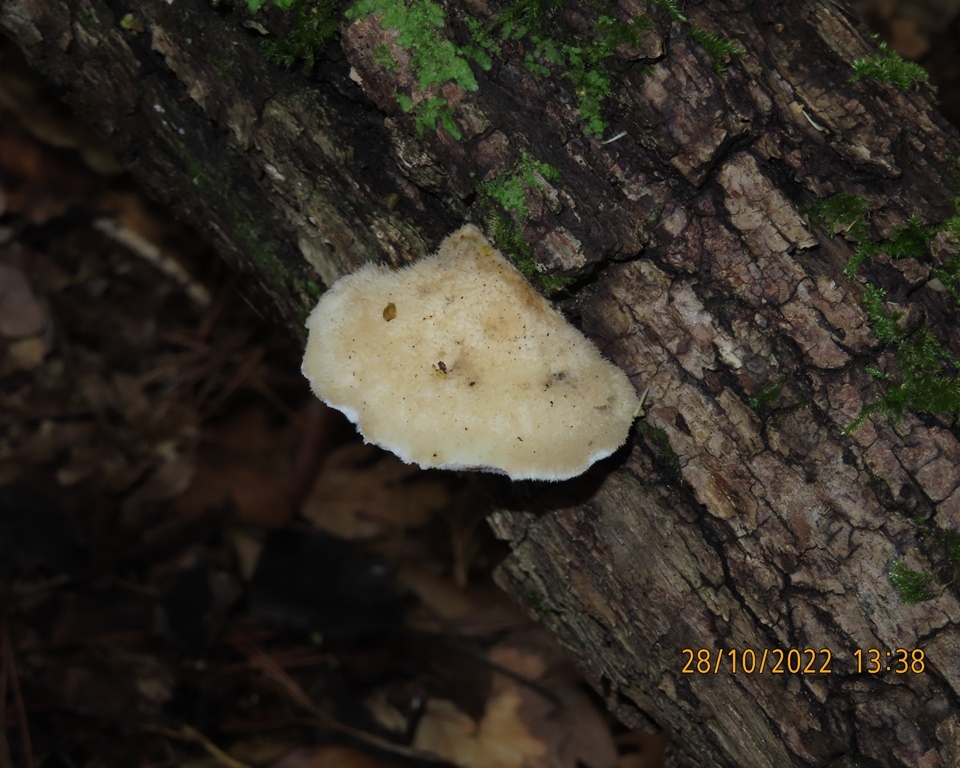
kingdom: Fungi
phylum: Basidiomycota
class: Agaricomycetes
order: Polyporales
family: Meruliaceae
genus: Donkia
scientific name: Donkia pulcherrima
